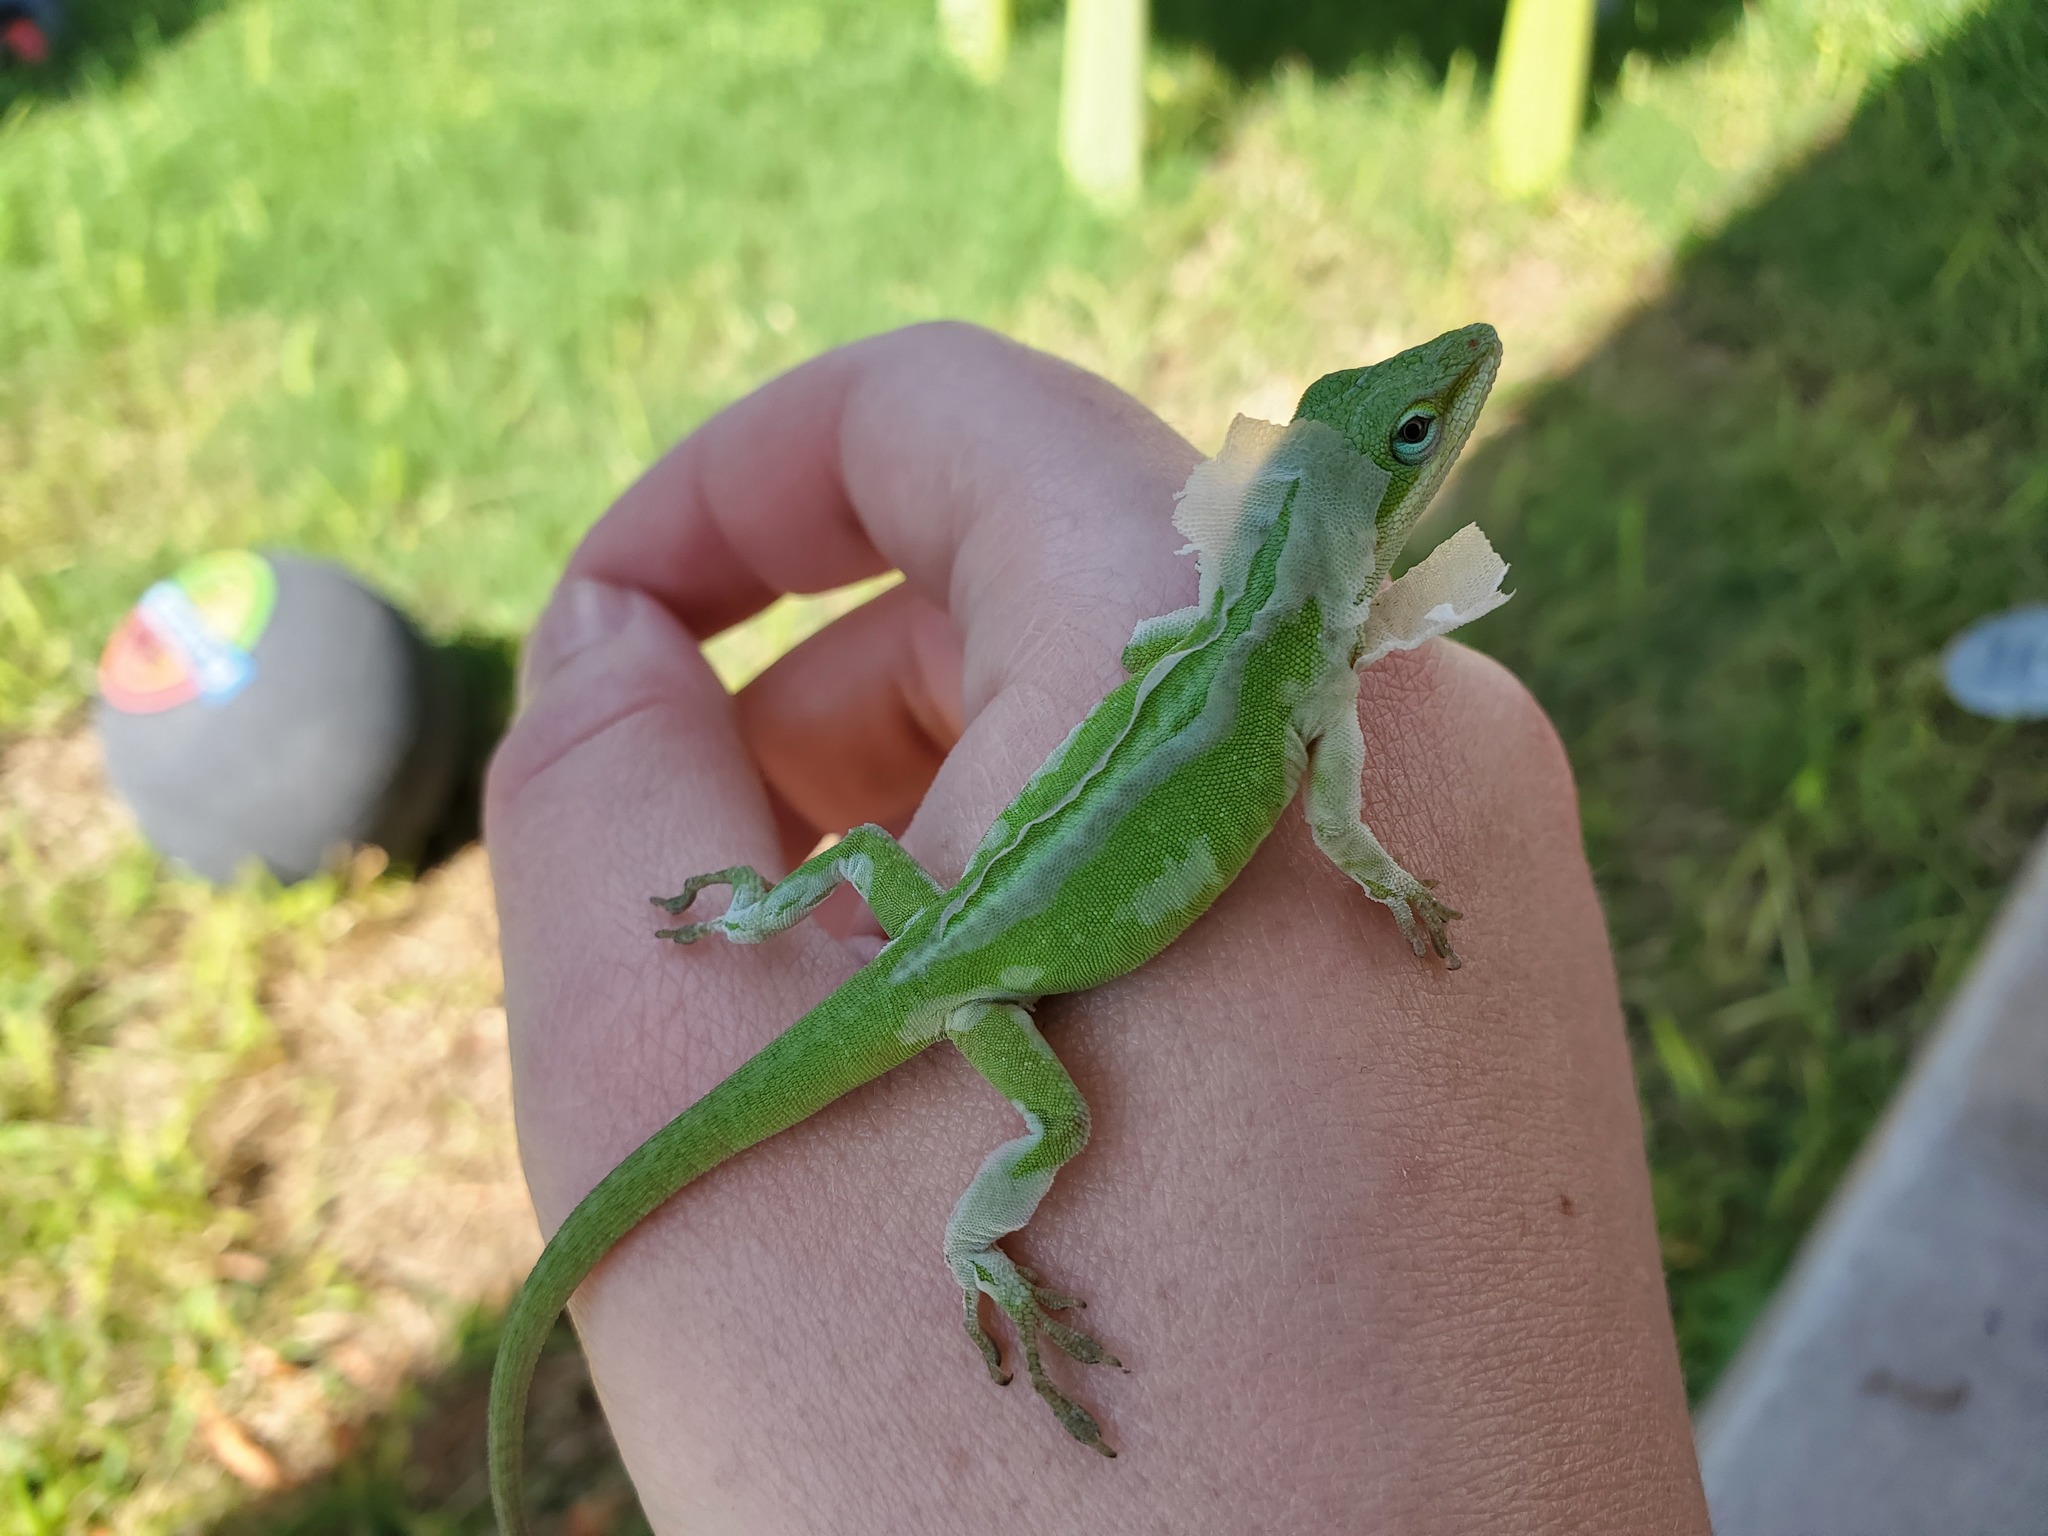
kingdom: Animalia
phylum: Chordata
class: Squamata
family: Dactyloidae
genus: Anolis
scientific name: Anolis carolinensis
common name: Green anole
